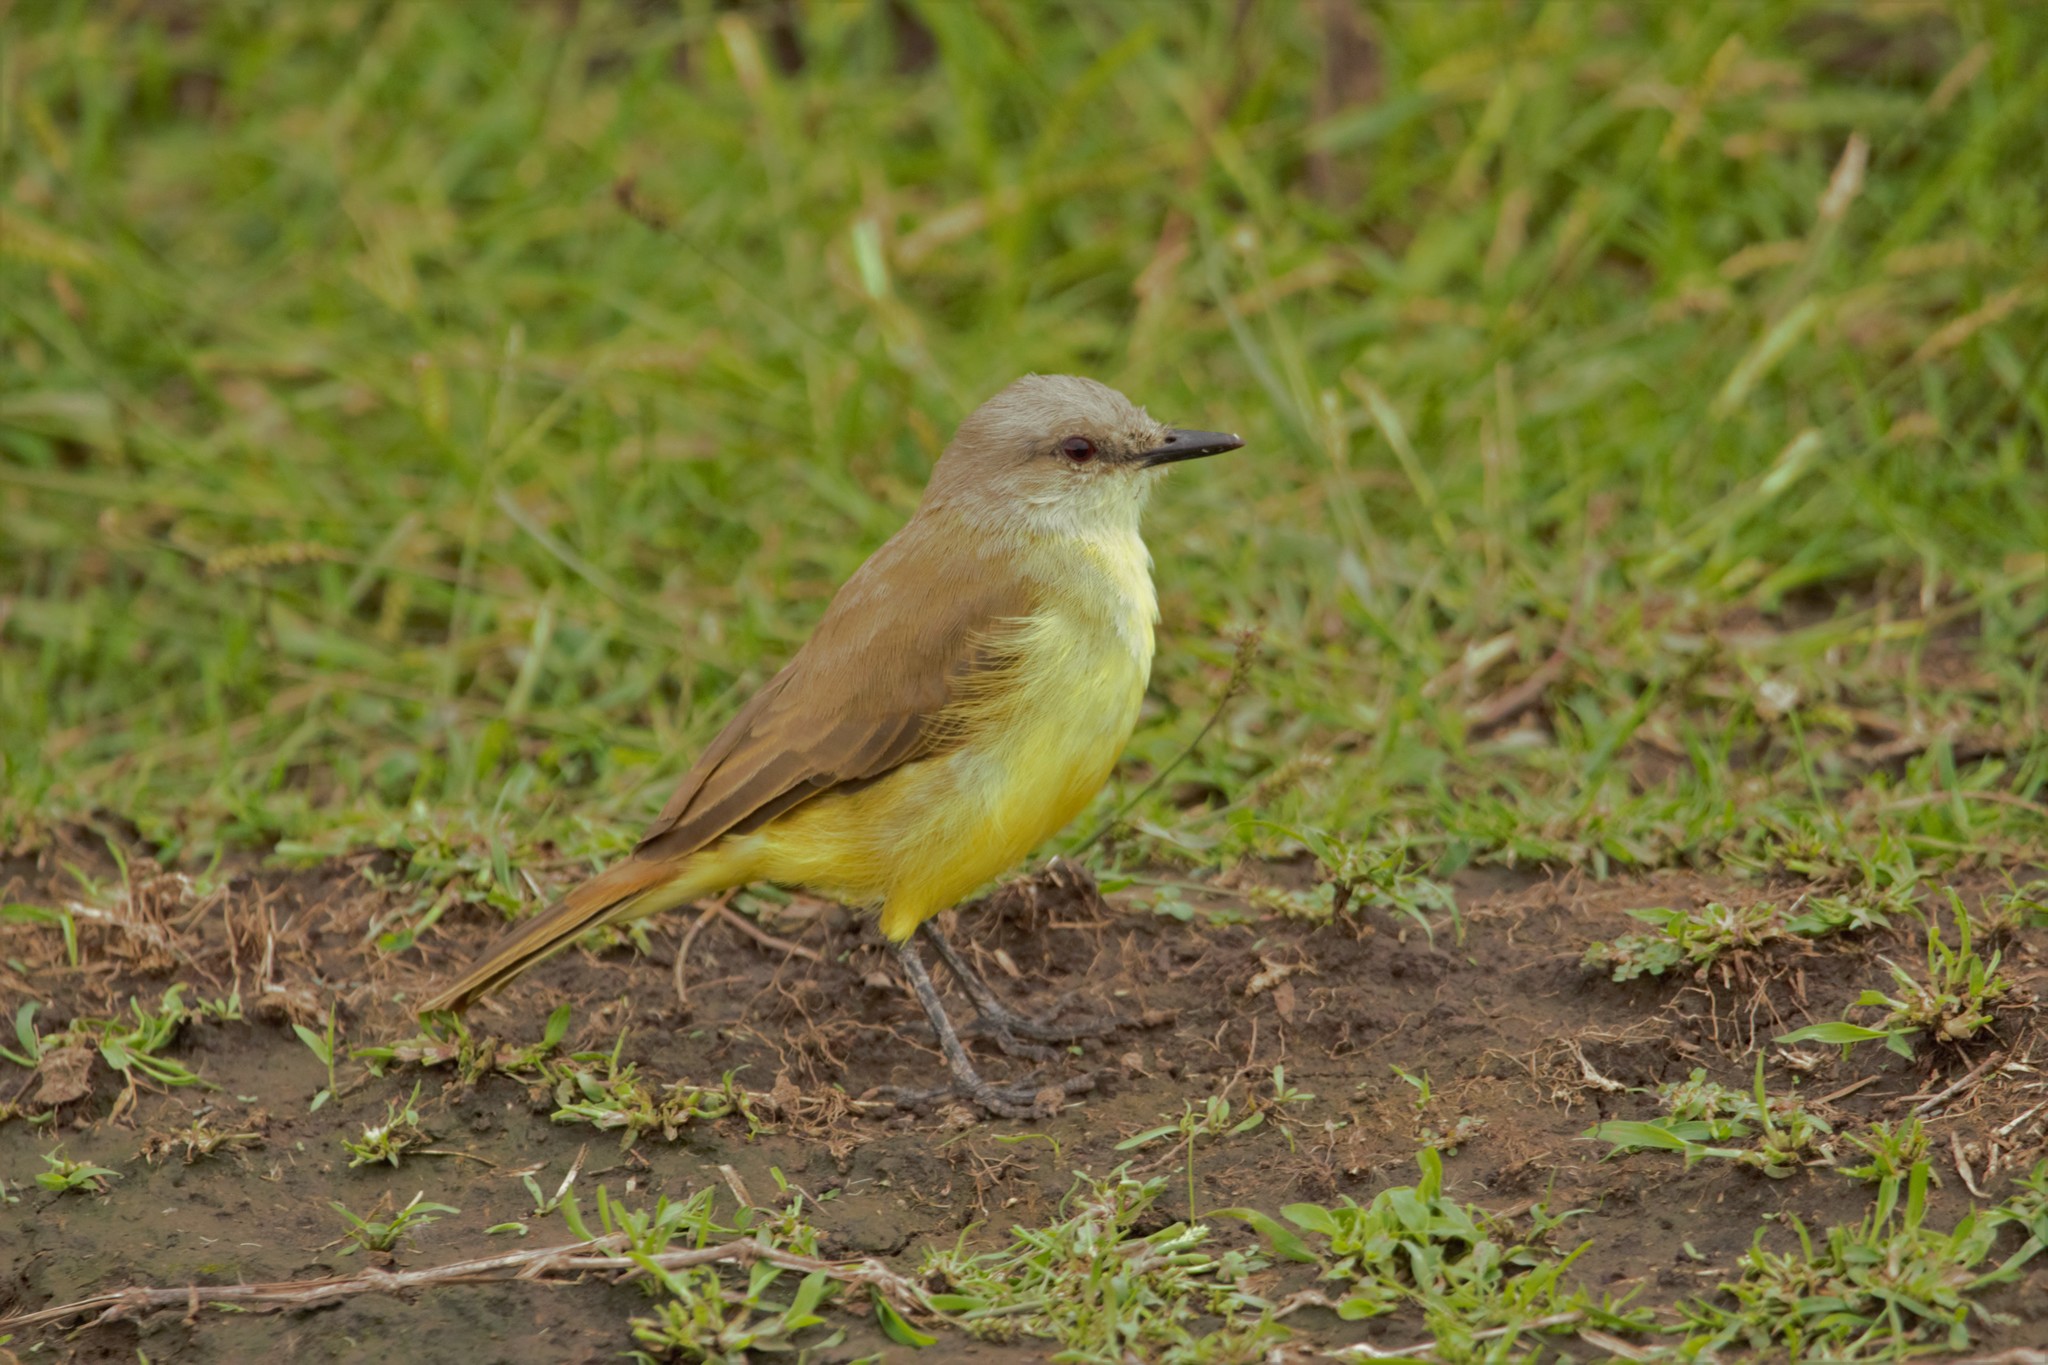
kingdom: Animalia
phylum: Chordata
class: Aves
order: Passeriformes
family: Tyrannidae
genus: Machetornis
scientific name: Machetornis rixosa
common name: Cattle tyrant
